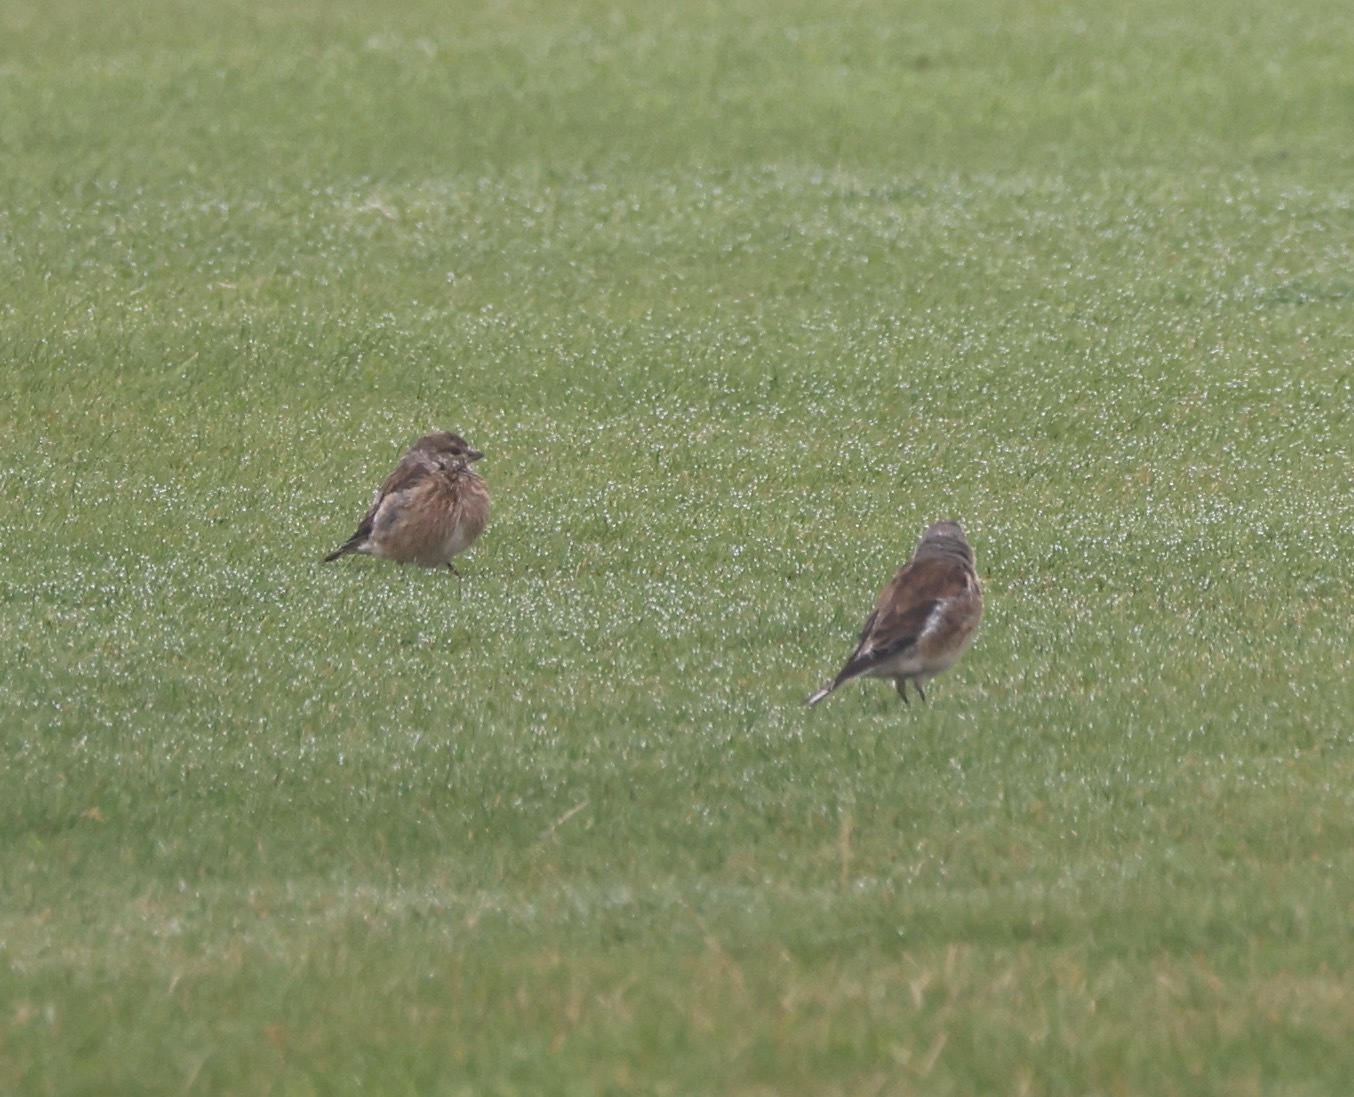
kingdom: Animalia
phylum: Chordata
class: Aves
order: Passeriformes
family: Fringillidae
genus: Linaria
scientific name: Linaria cannabina
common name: Common linnet
